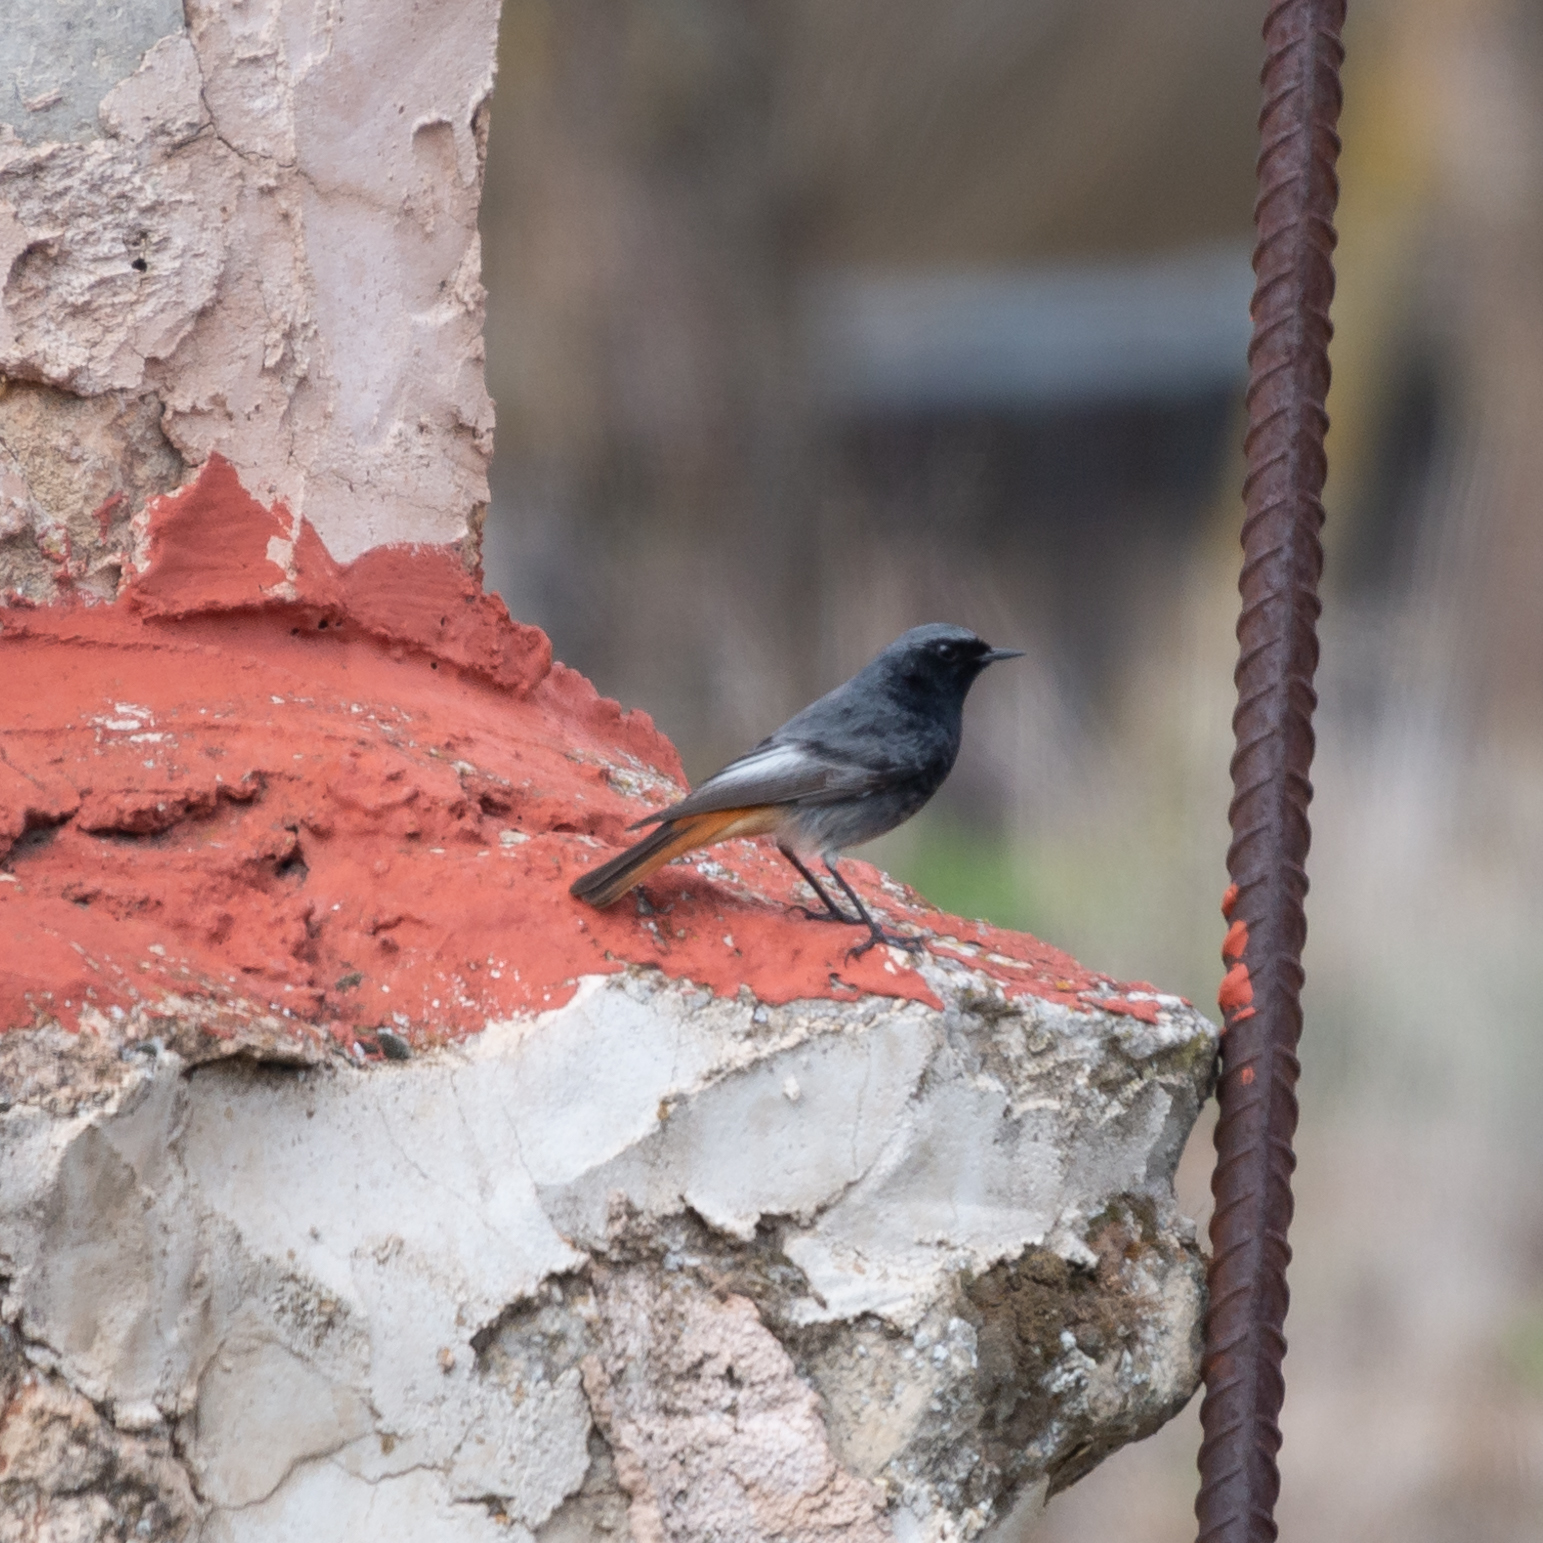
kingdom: Animalia
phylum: Chordata
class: Aves
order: Passeriformes
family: Muscicapidae
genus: Phoenicurus
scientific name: Phoenicurus ochruros
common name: Black redstart
